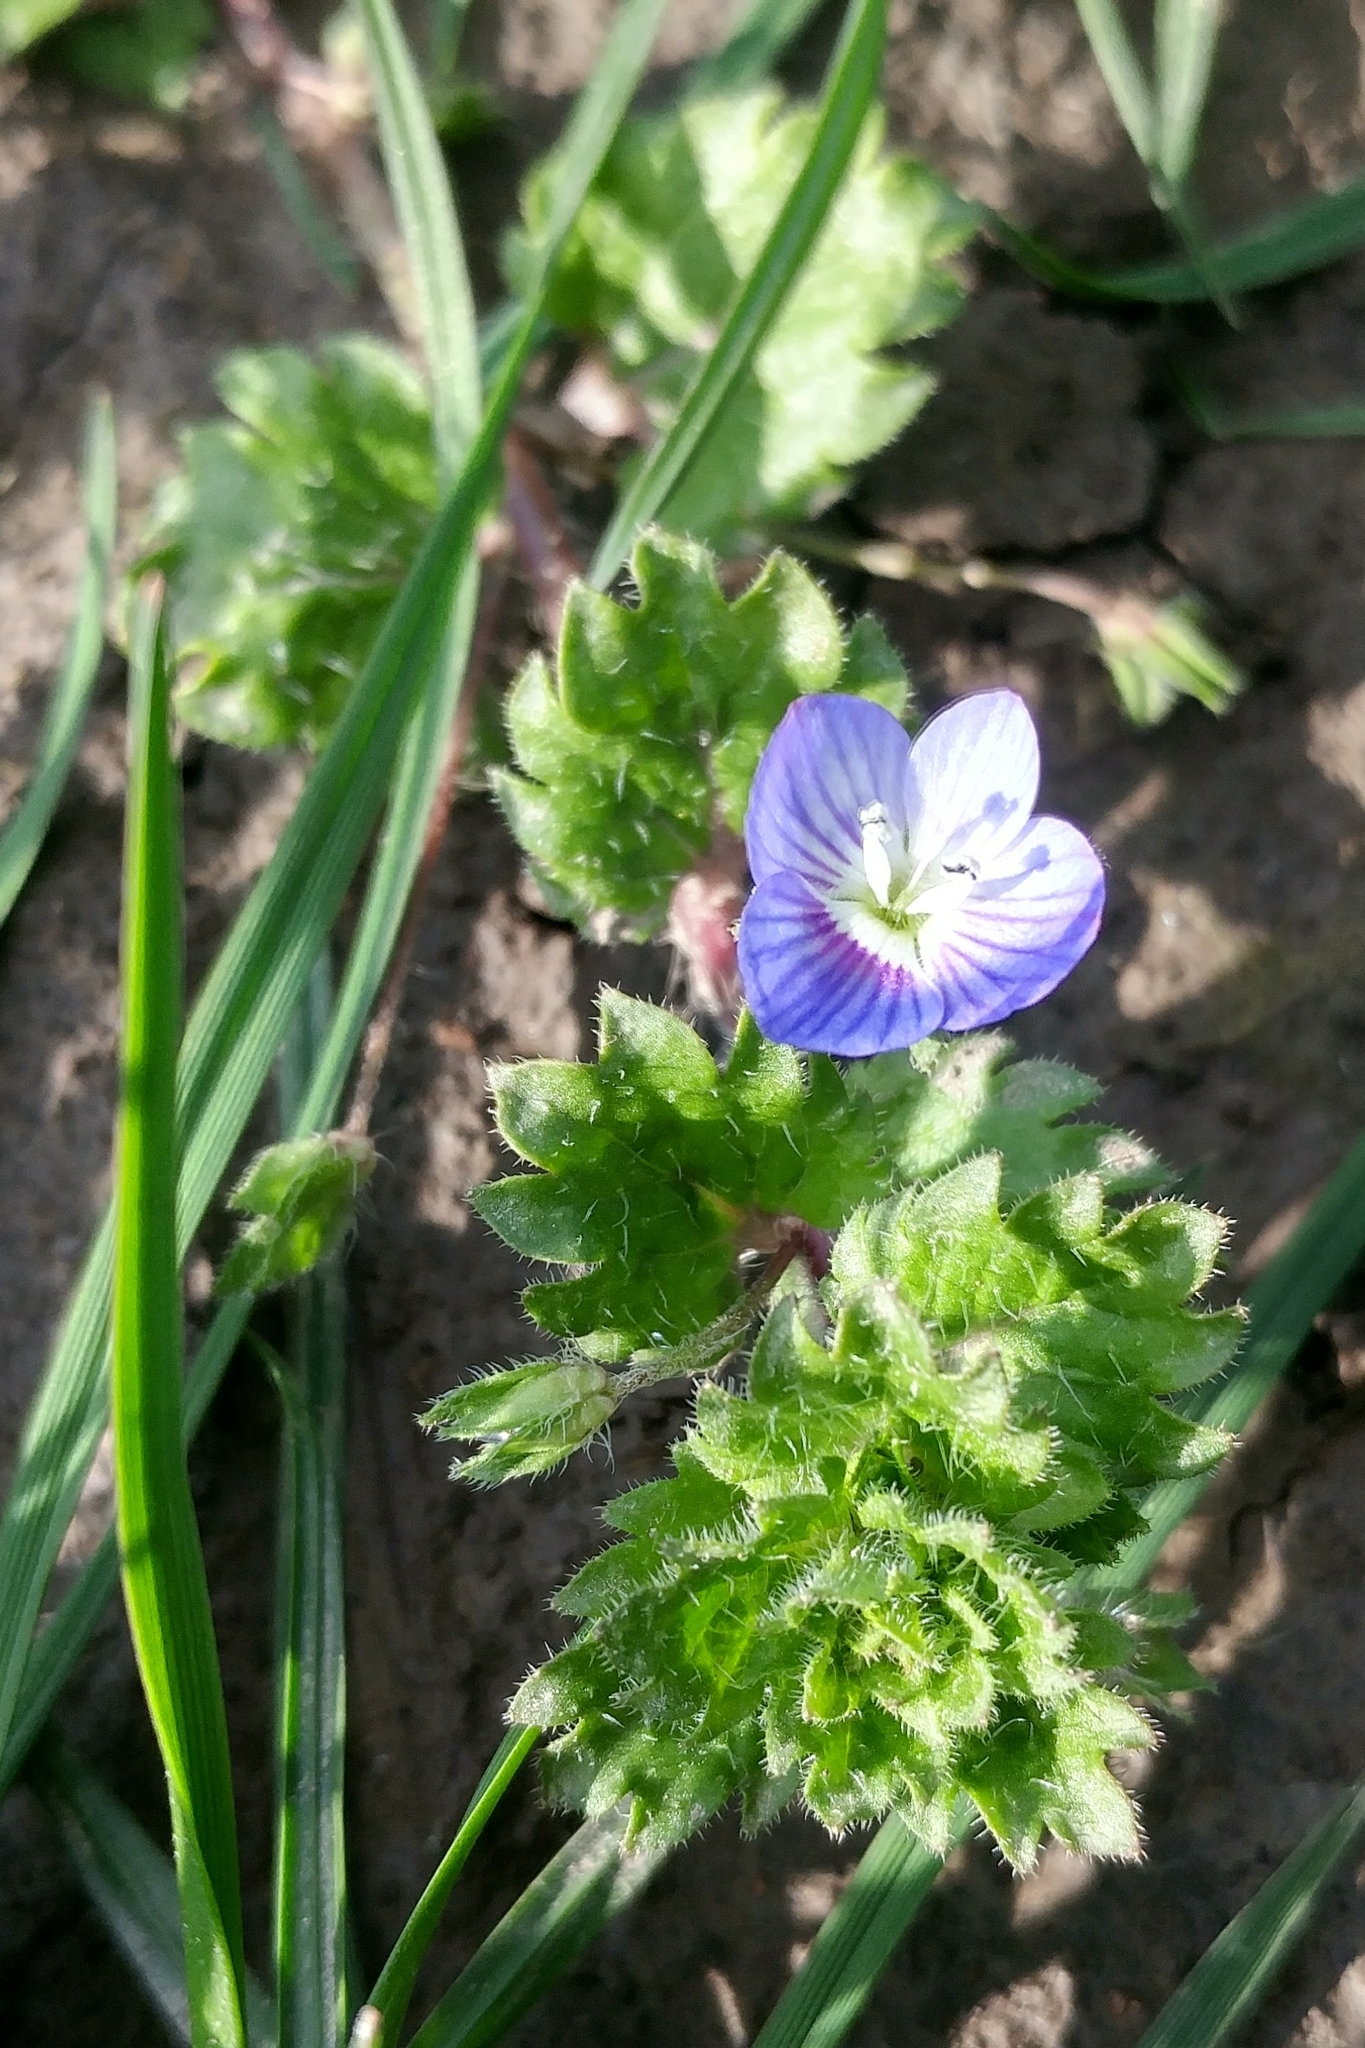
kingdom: Plantae
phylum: Tracheophyta
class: Magnoliopsida
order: Lamiales
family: Plantaginaceae
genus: Veronica
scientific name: Veronica persica
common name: Common field-speedwell
